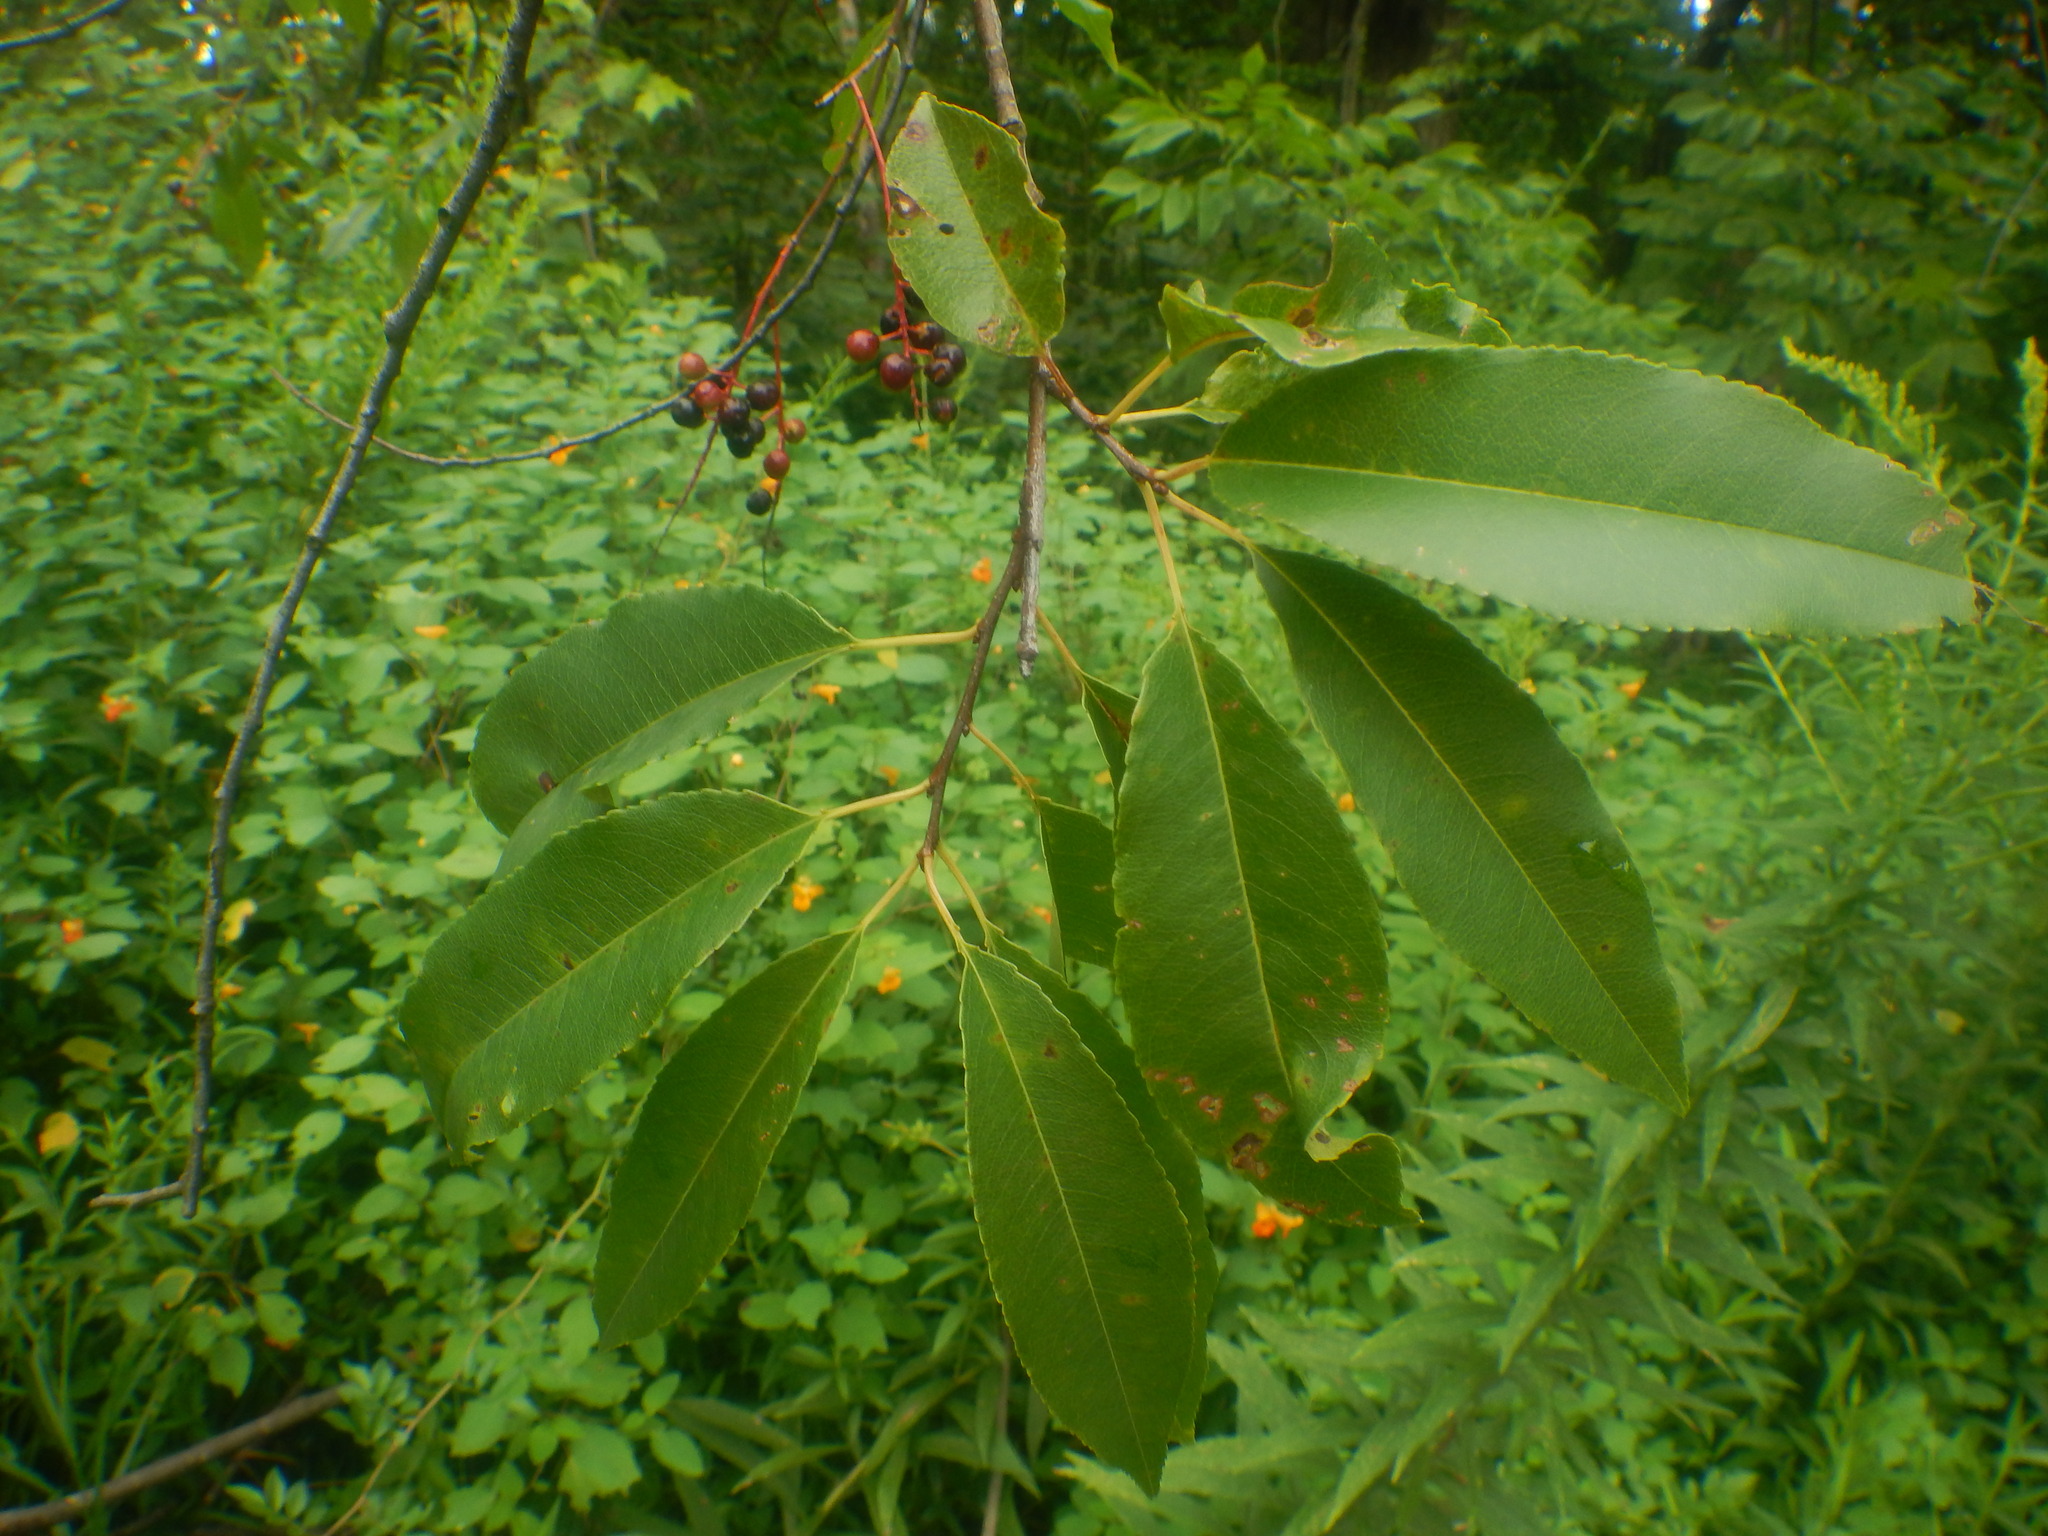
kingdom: Plantae
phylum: Tracheophyta
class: Magnoliopsida
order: Rosales
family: Rosaceae
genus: Prunus
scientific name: Prunus serotina
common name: Black cherry
